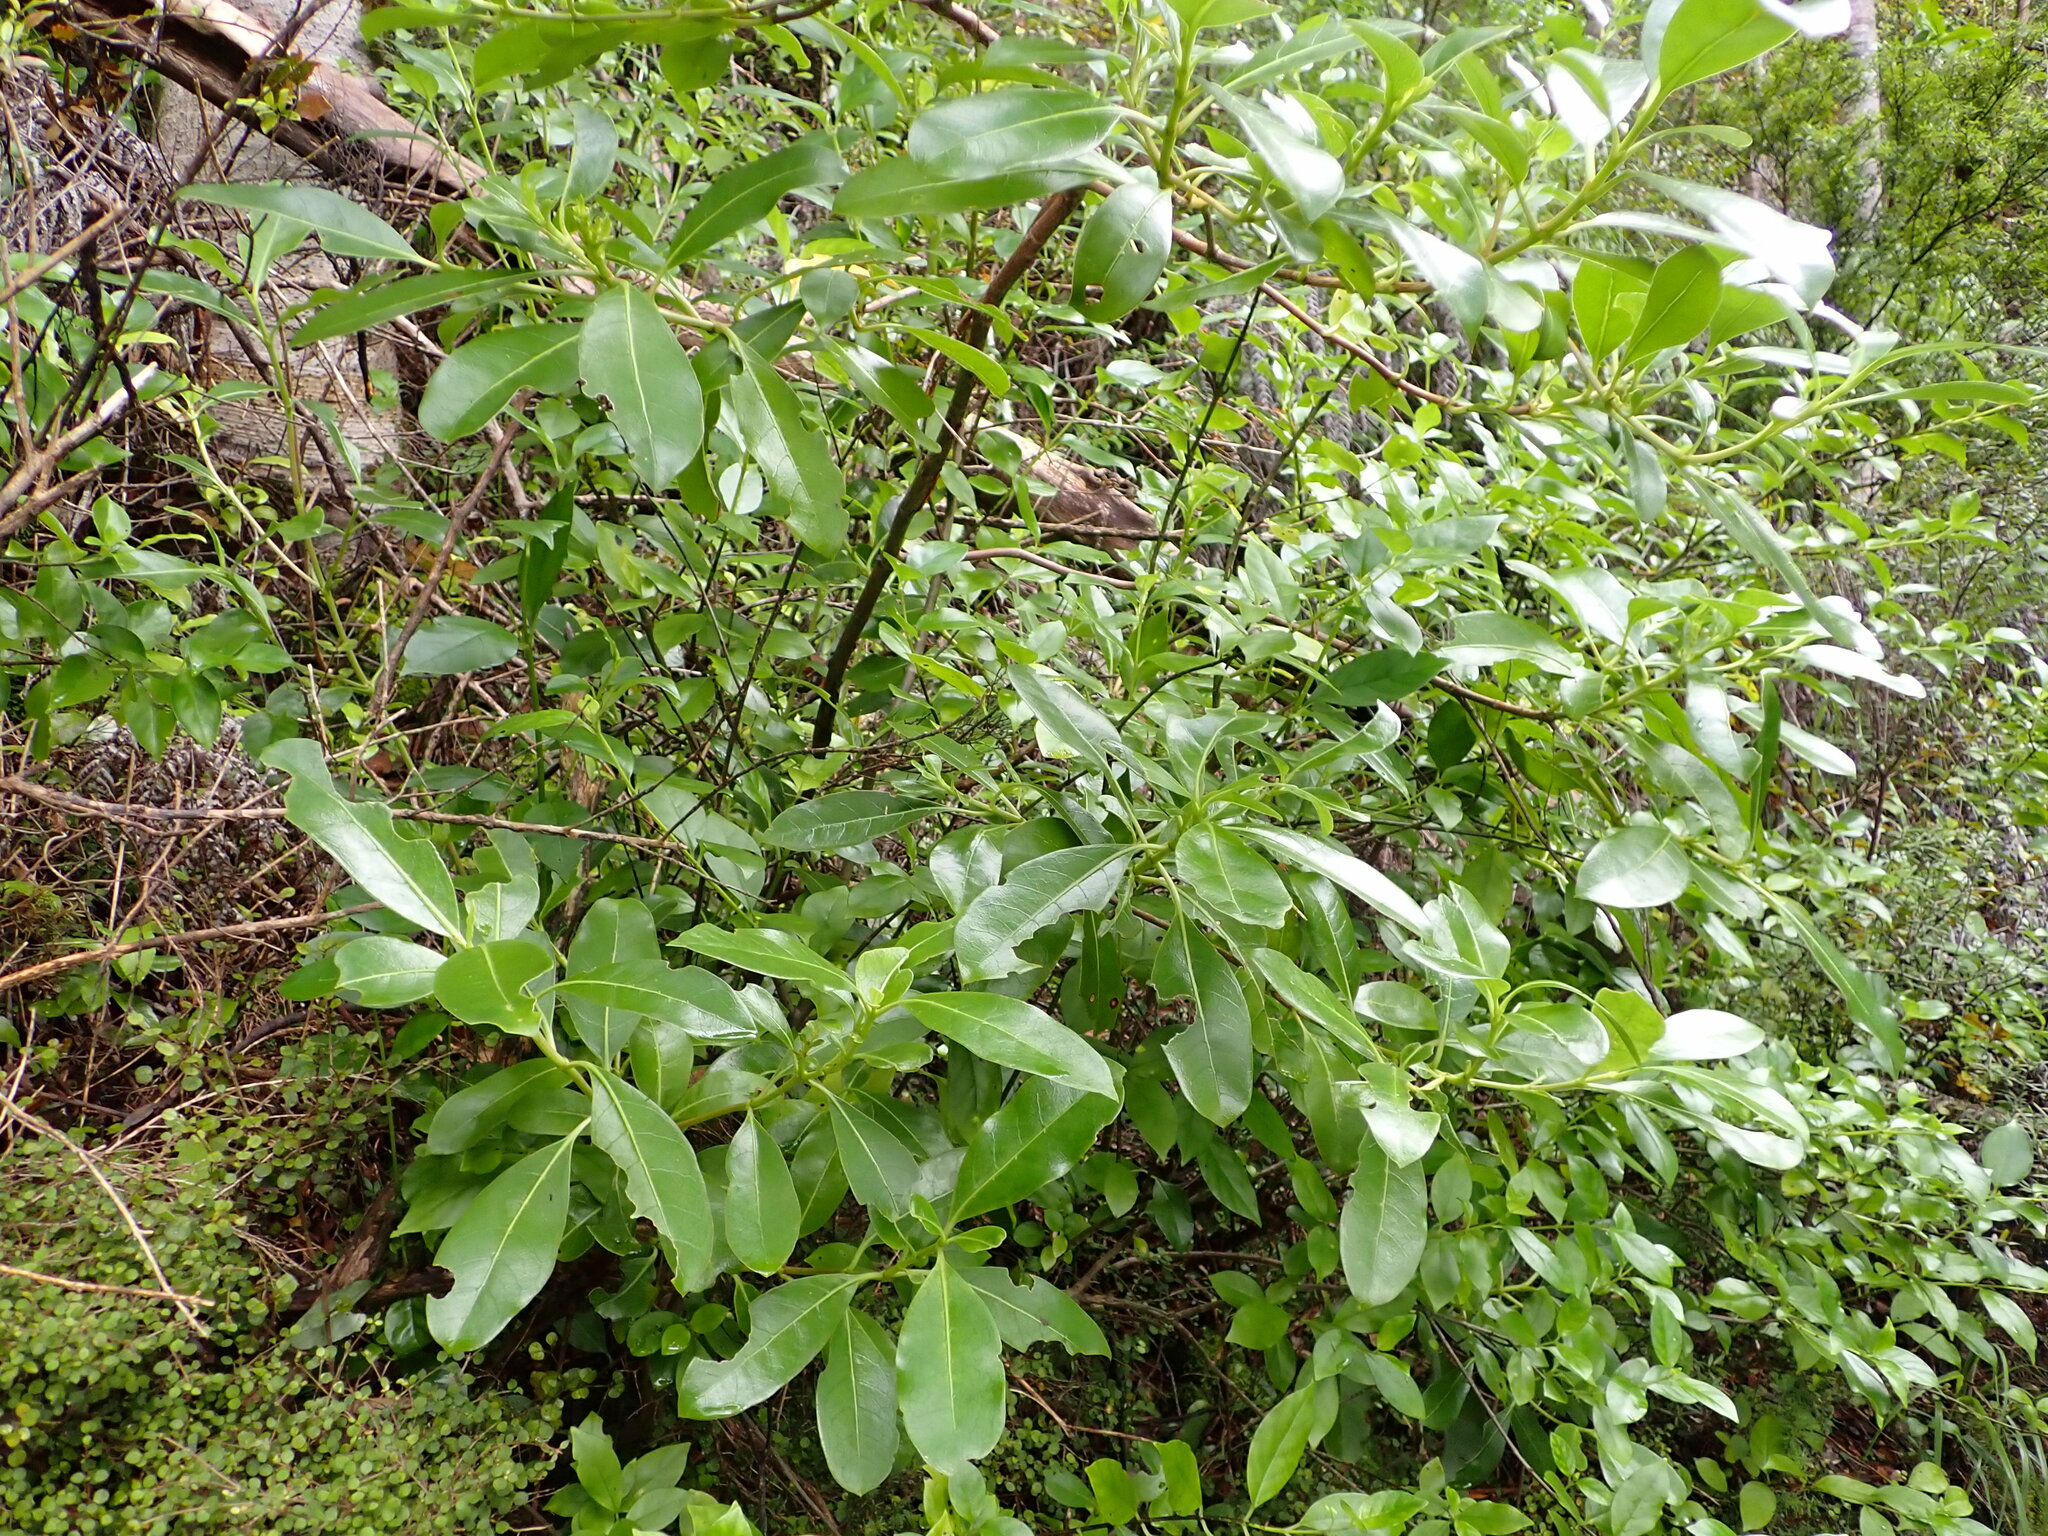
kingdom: Plantae
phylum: Tracheophyta
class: Magnoliopsida
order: Gentianales
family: Rubiaceae
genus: Coprosma
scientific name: Coprosma lucida
